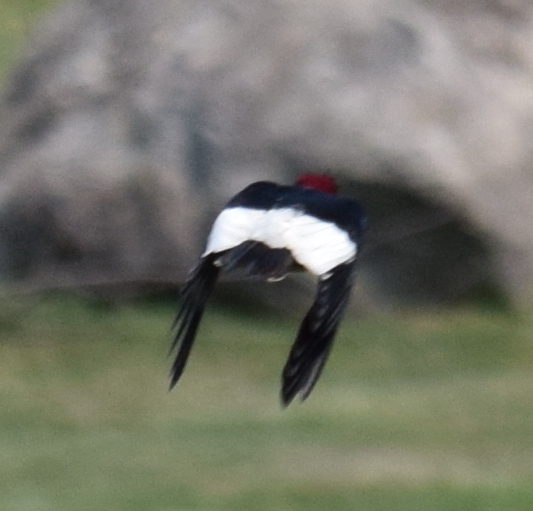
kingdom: Animalia
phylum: Chordata
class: Aves
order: Piciformes
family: Picidae
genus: Melanerpes
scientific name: Melanerpes erythrocephalus
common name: Red-headed woodpecker
